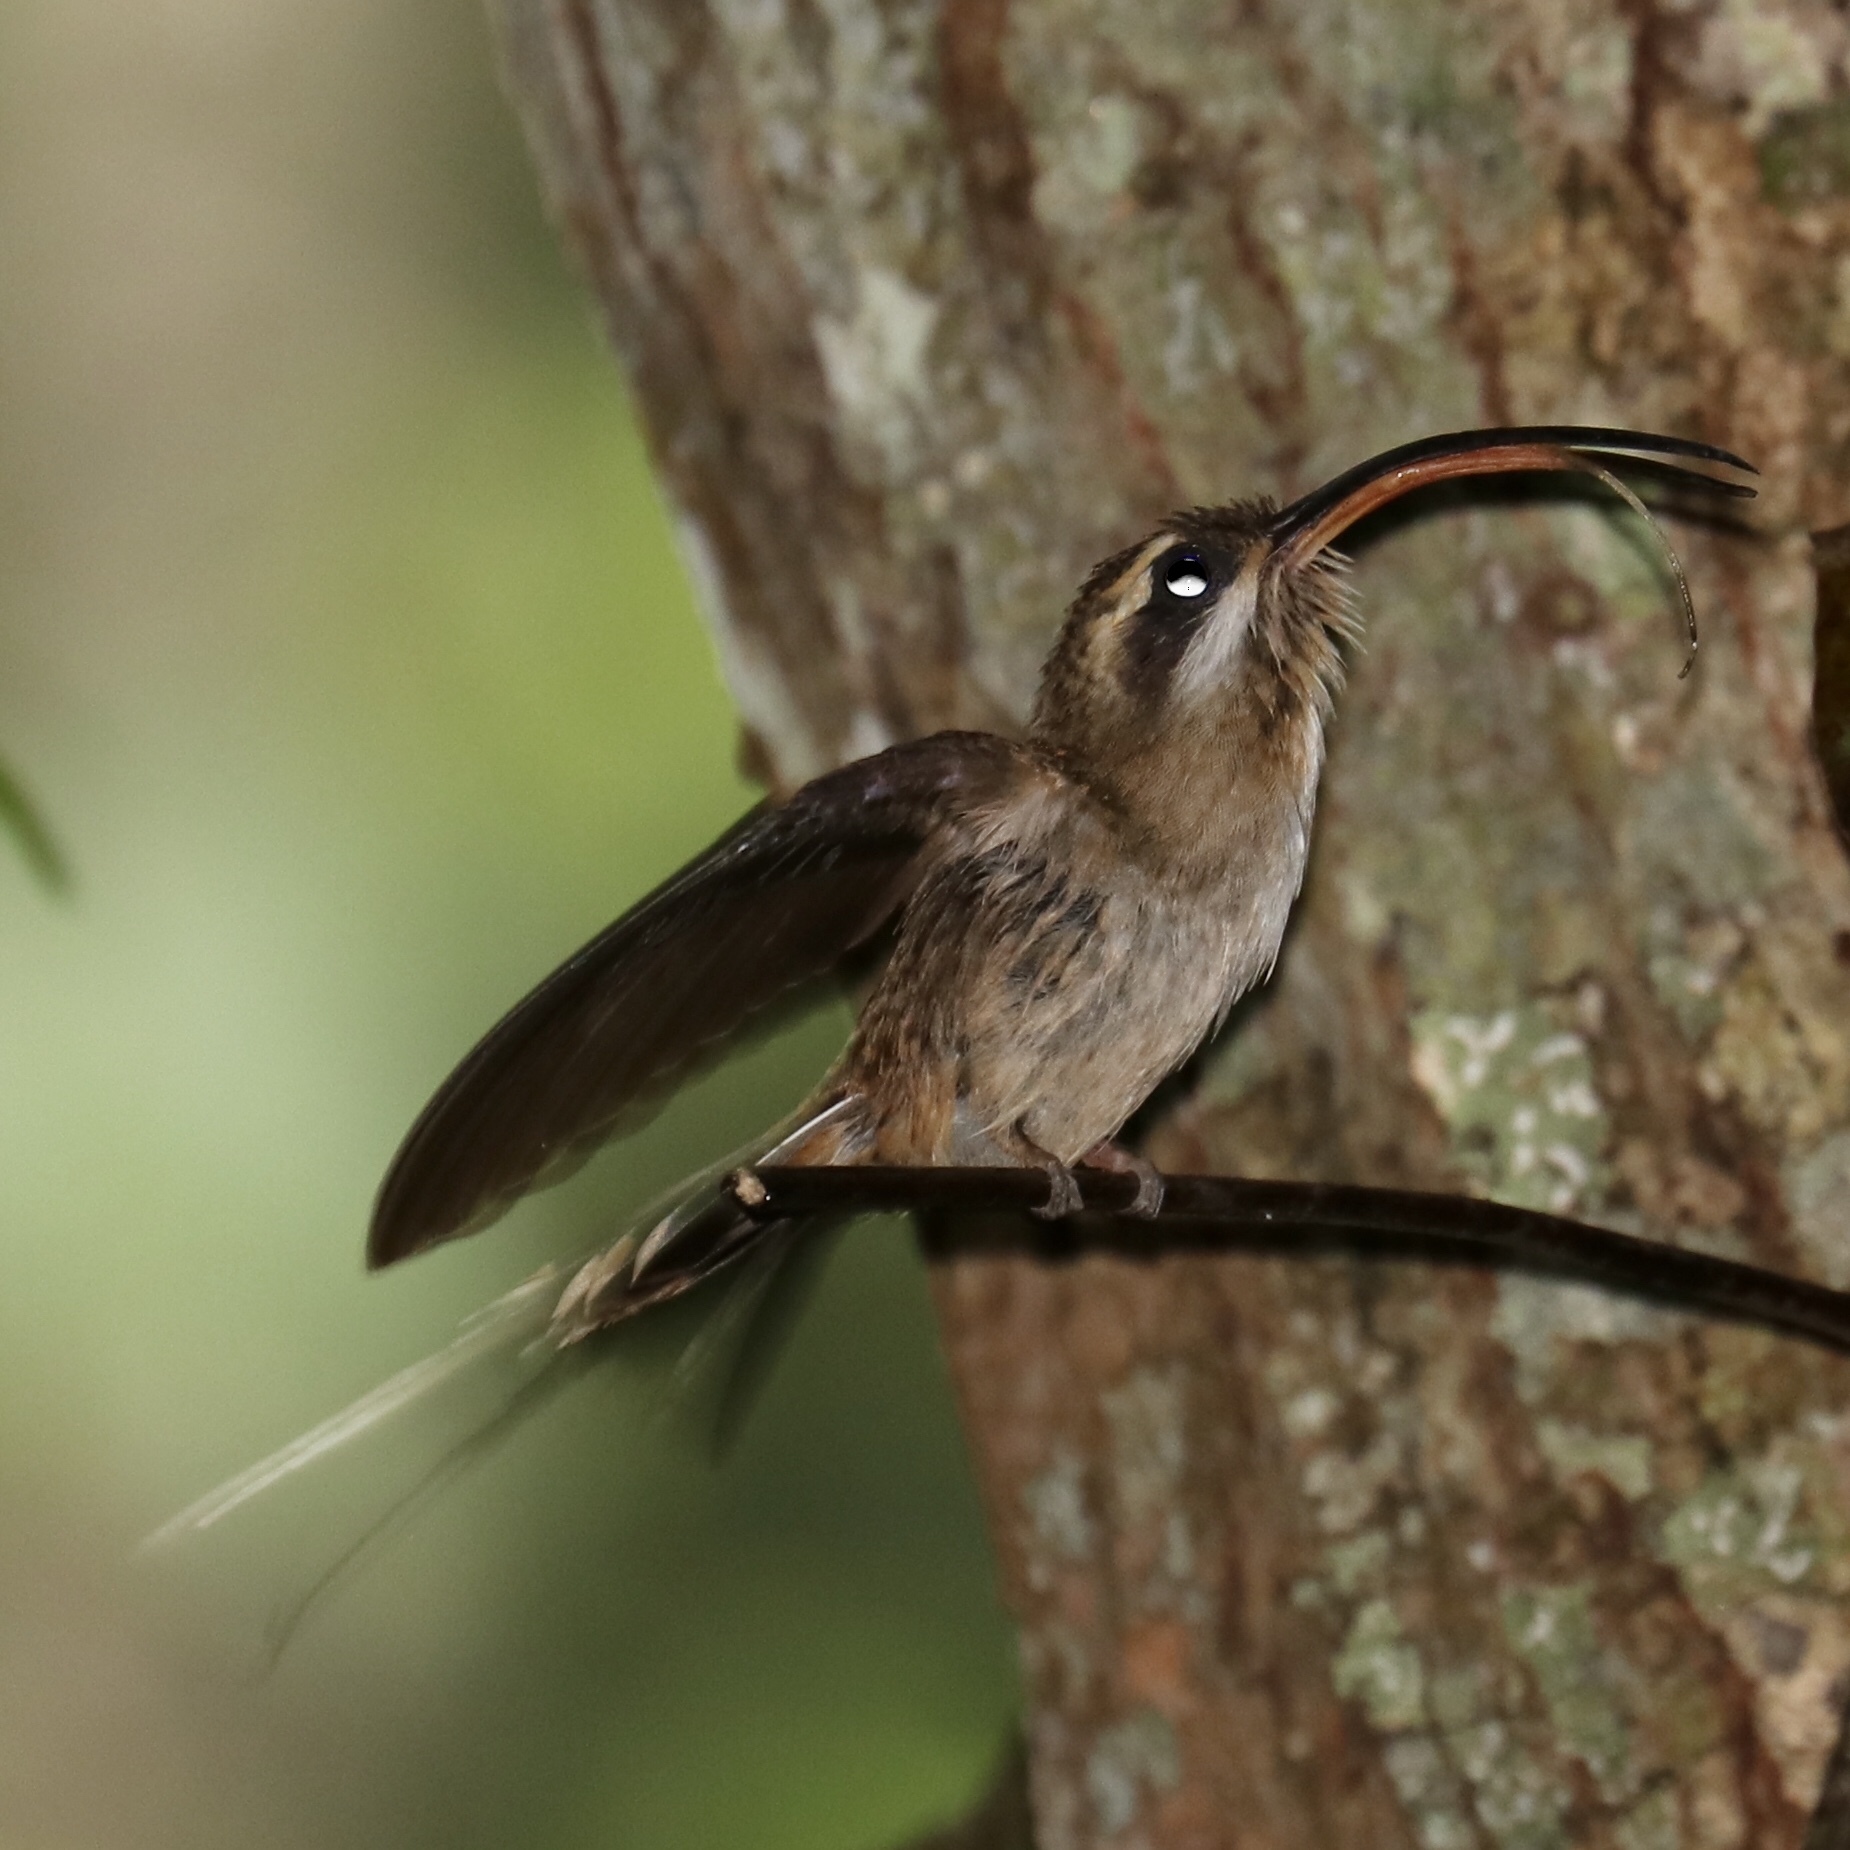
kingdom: Animalia
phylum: Chordata
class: Aves
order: Apodiformes
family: Trochilidae
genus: Phaethornis
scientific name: Phaethornis longirostris
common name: Long-billed hermit
